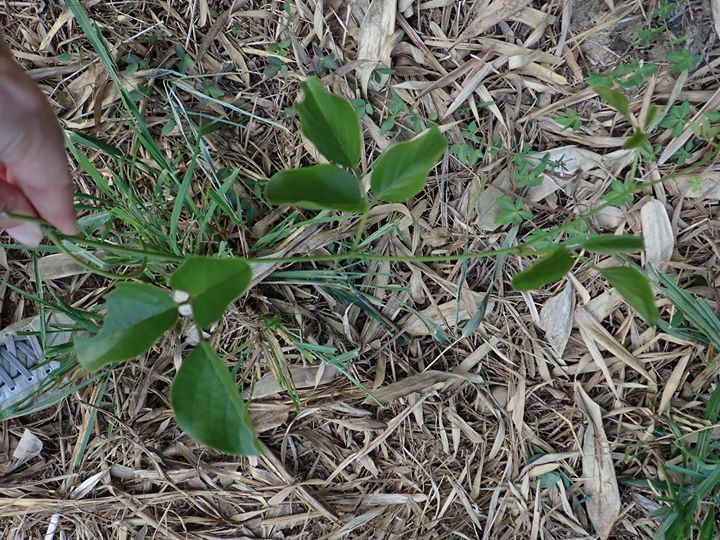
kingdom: Plantae
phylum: Tracheophyta
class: Magnoliopsida
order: Fabales
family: Fabaceae
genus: Canavalia
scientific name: Canavalia lineata
